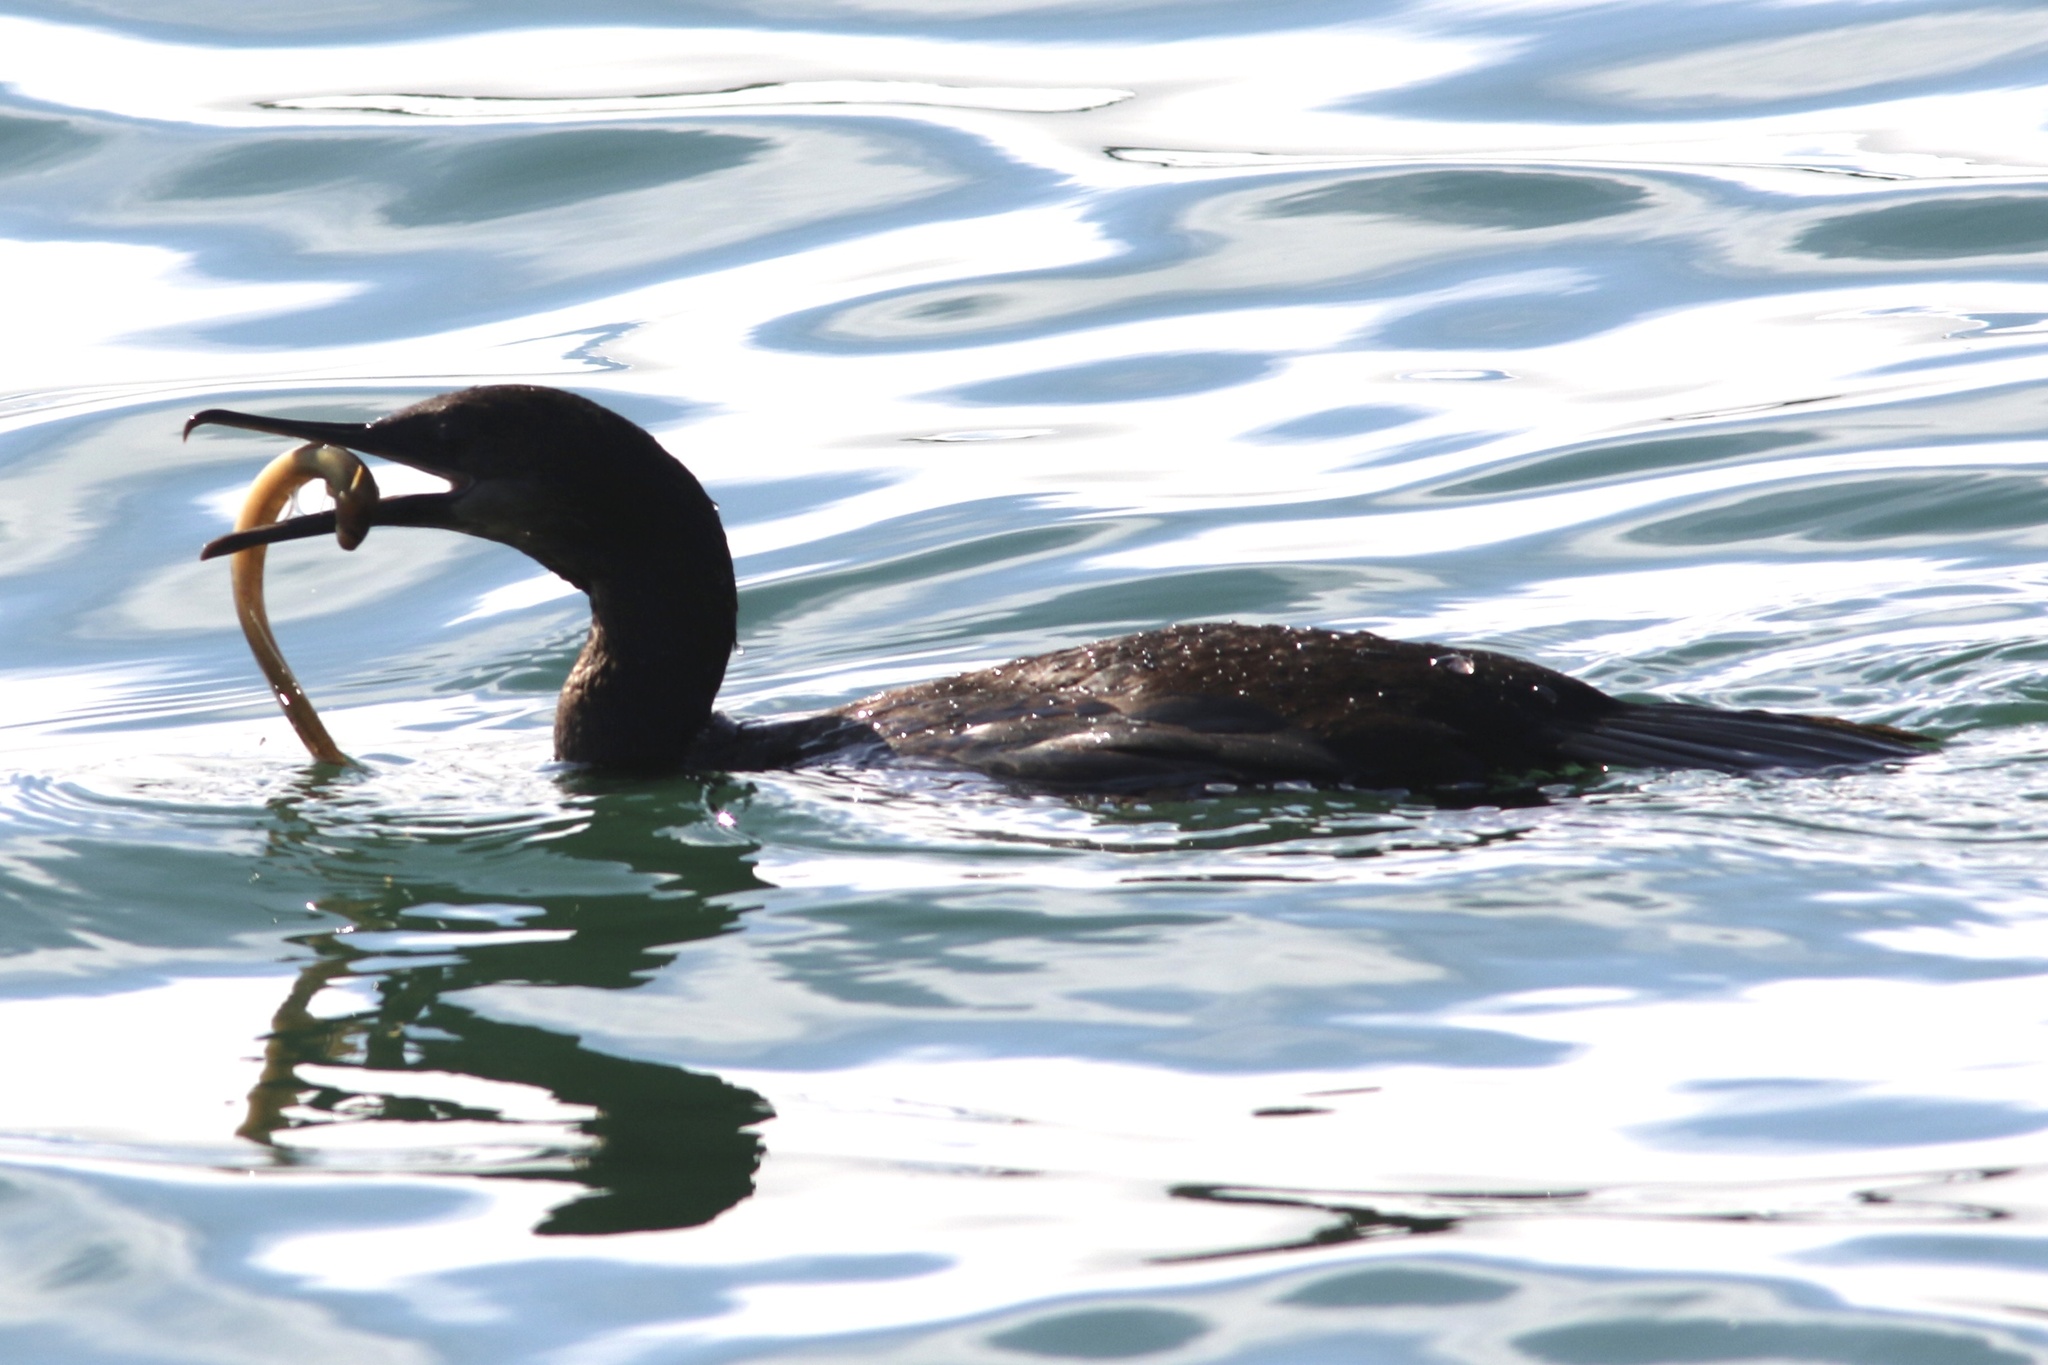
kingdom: Animalia
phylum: Chordata
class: Aves
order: Suliformes
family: Phalacrocoracidae
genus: Urile
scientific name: Urile penicillatus
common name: Brandt's cormorant
